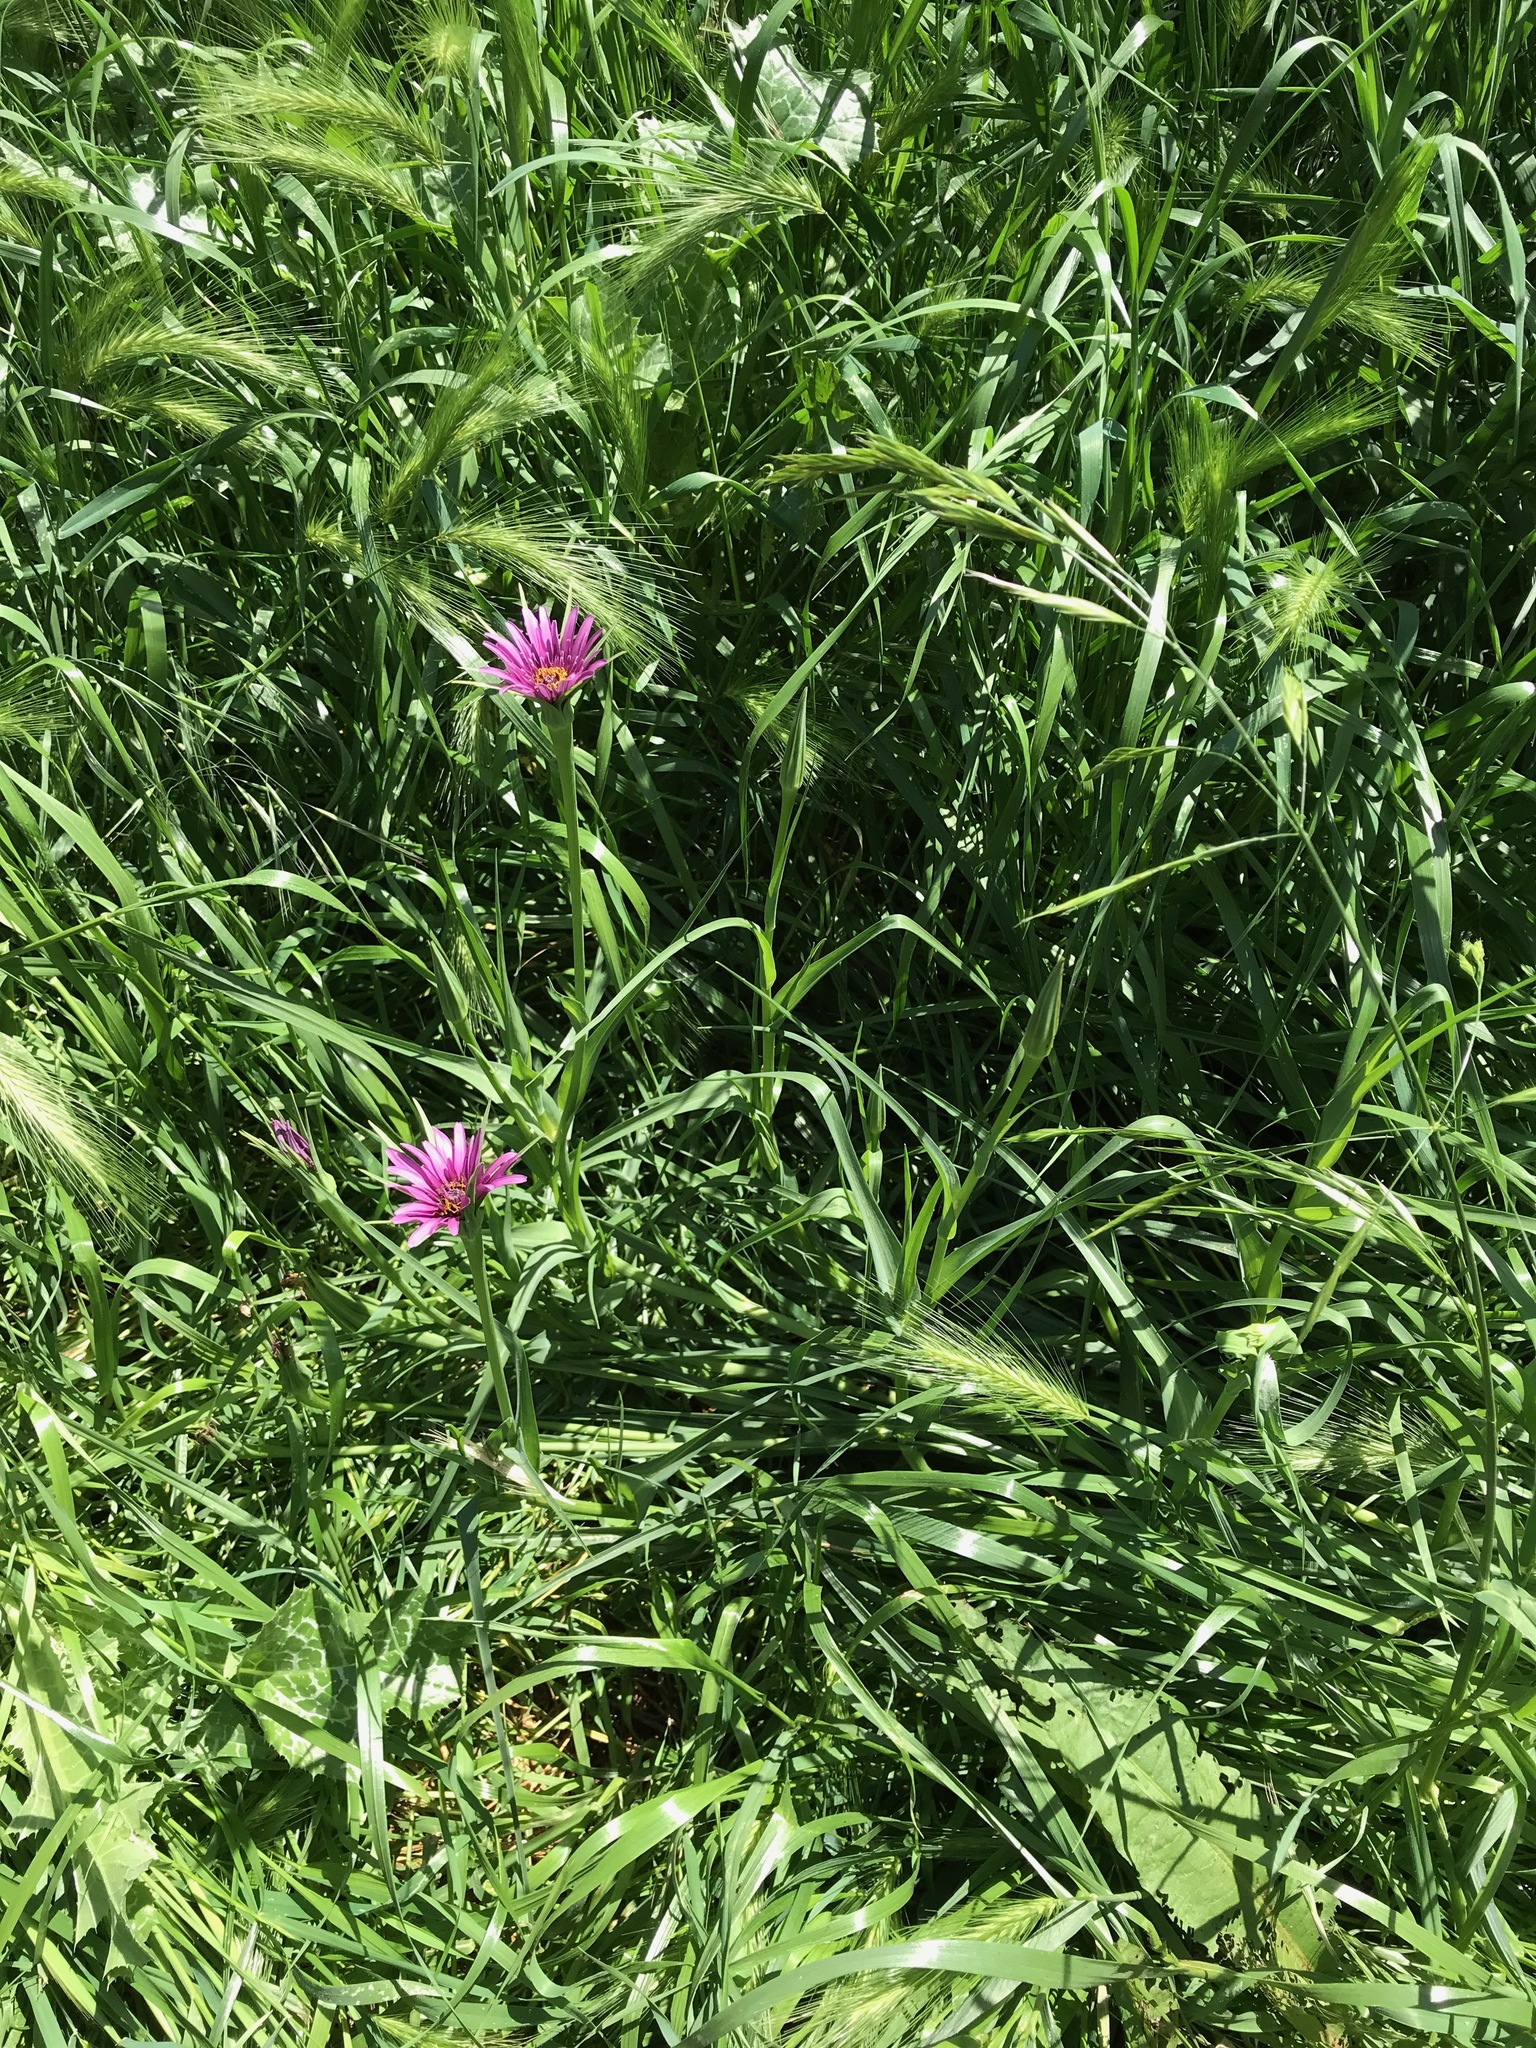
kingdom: Plantae
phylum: Tracheophyta
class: Magnoliopsida
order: Asterales
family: Asteraceae
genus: Tragopogon
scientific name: Tragopogon porrifolius
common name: Salsify
